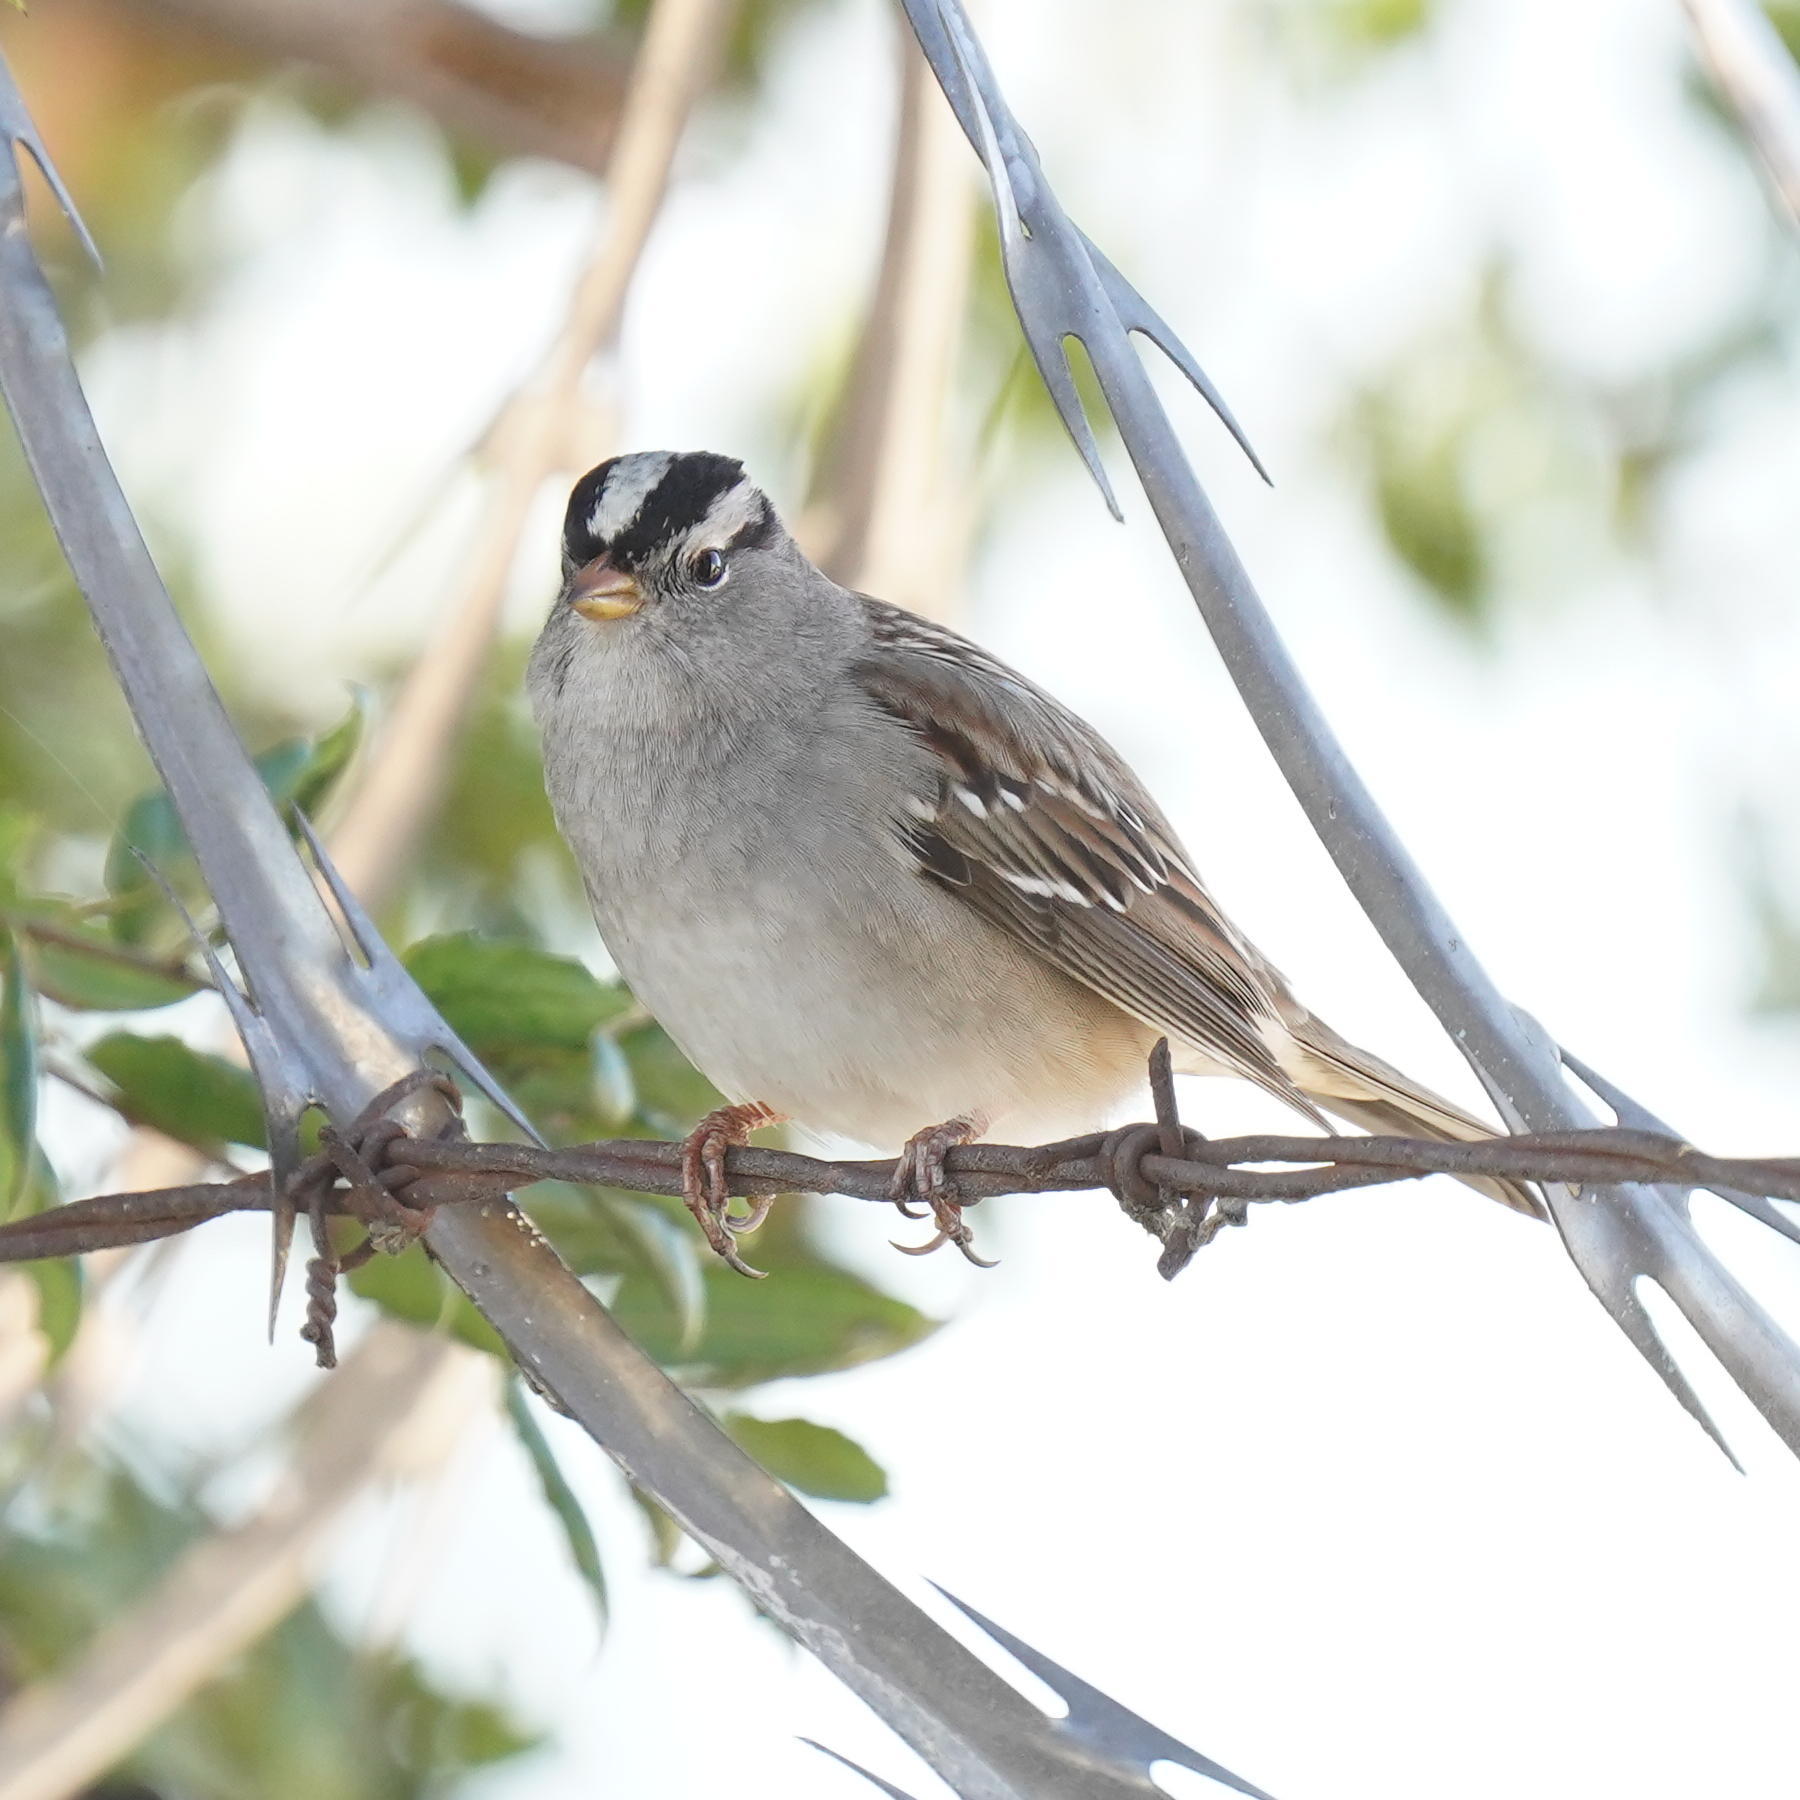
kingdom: Animalia
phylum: Chordata
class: Aves
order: Passeriformes
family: Passerellidae
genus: Zonotrichia
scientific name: Zonotrichia leucophrys
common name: White-crowned sparrow
